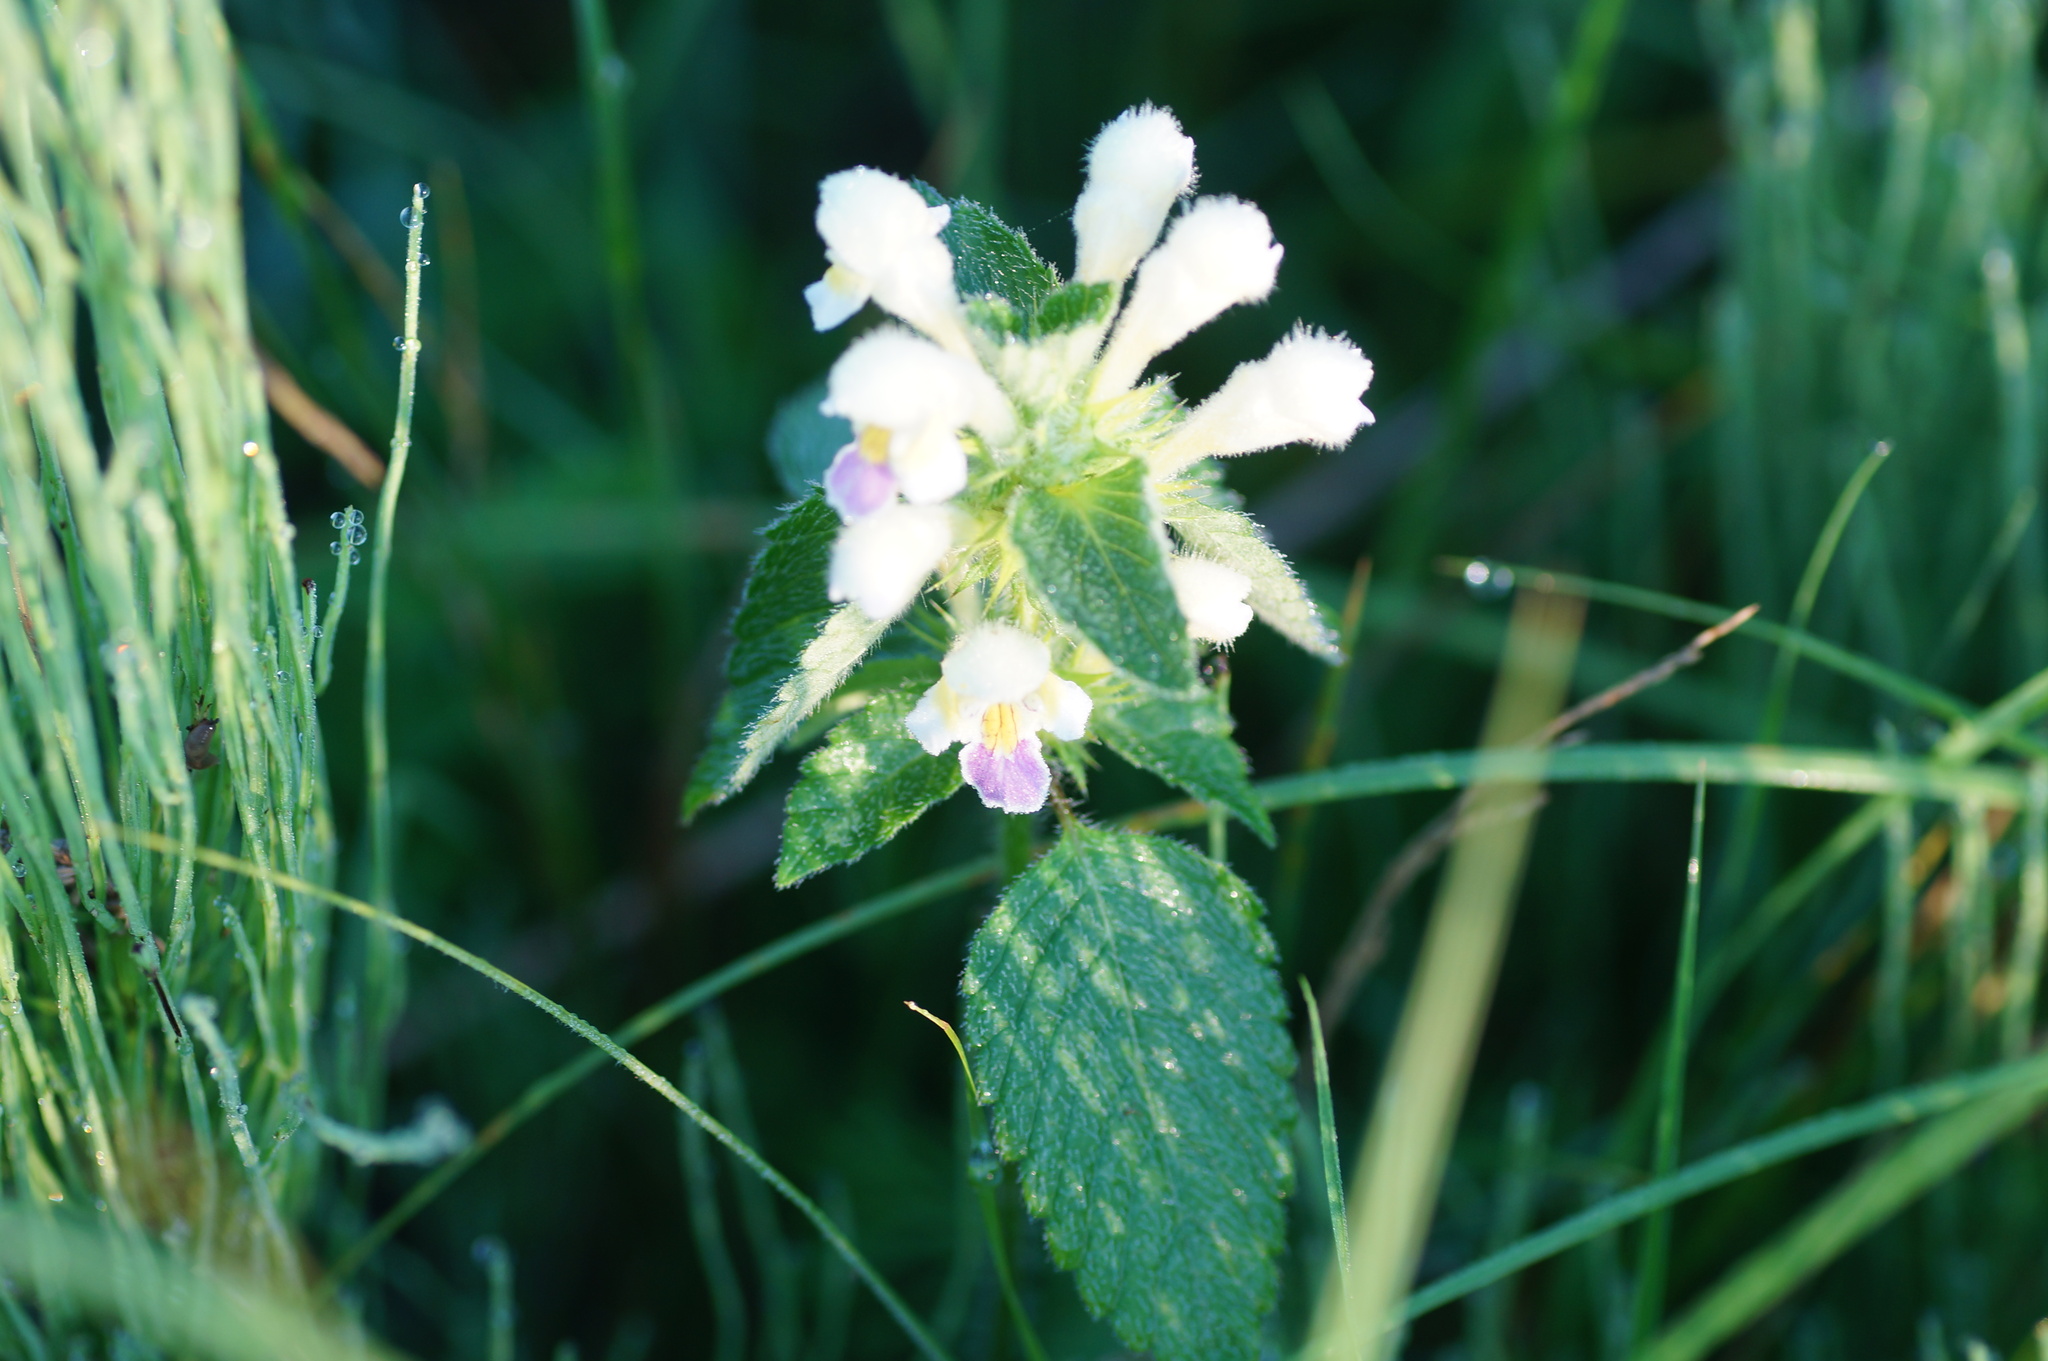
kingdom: Plantae
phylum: Tracheophyta
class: Magnoliopsida
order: Lamiales
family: Lamiaceae
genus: Galeopsis
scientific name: Galeopsis speciosa
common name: Large-flowered hemp-nettle
